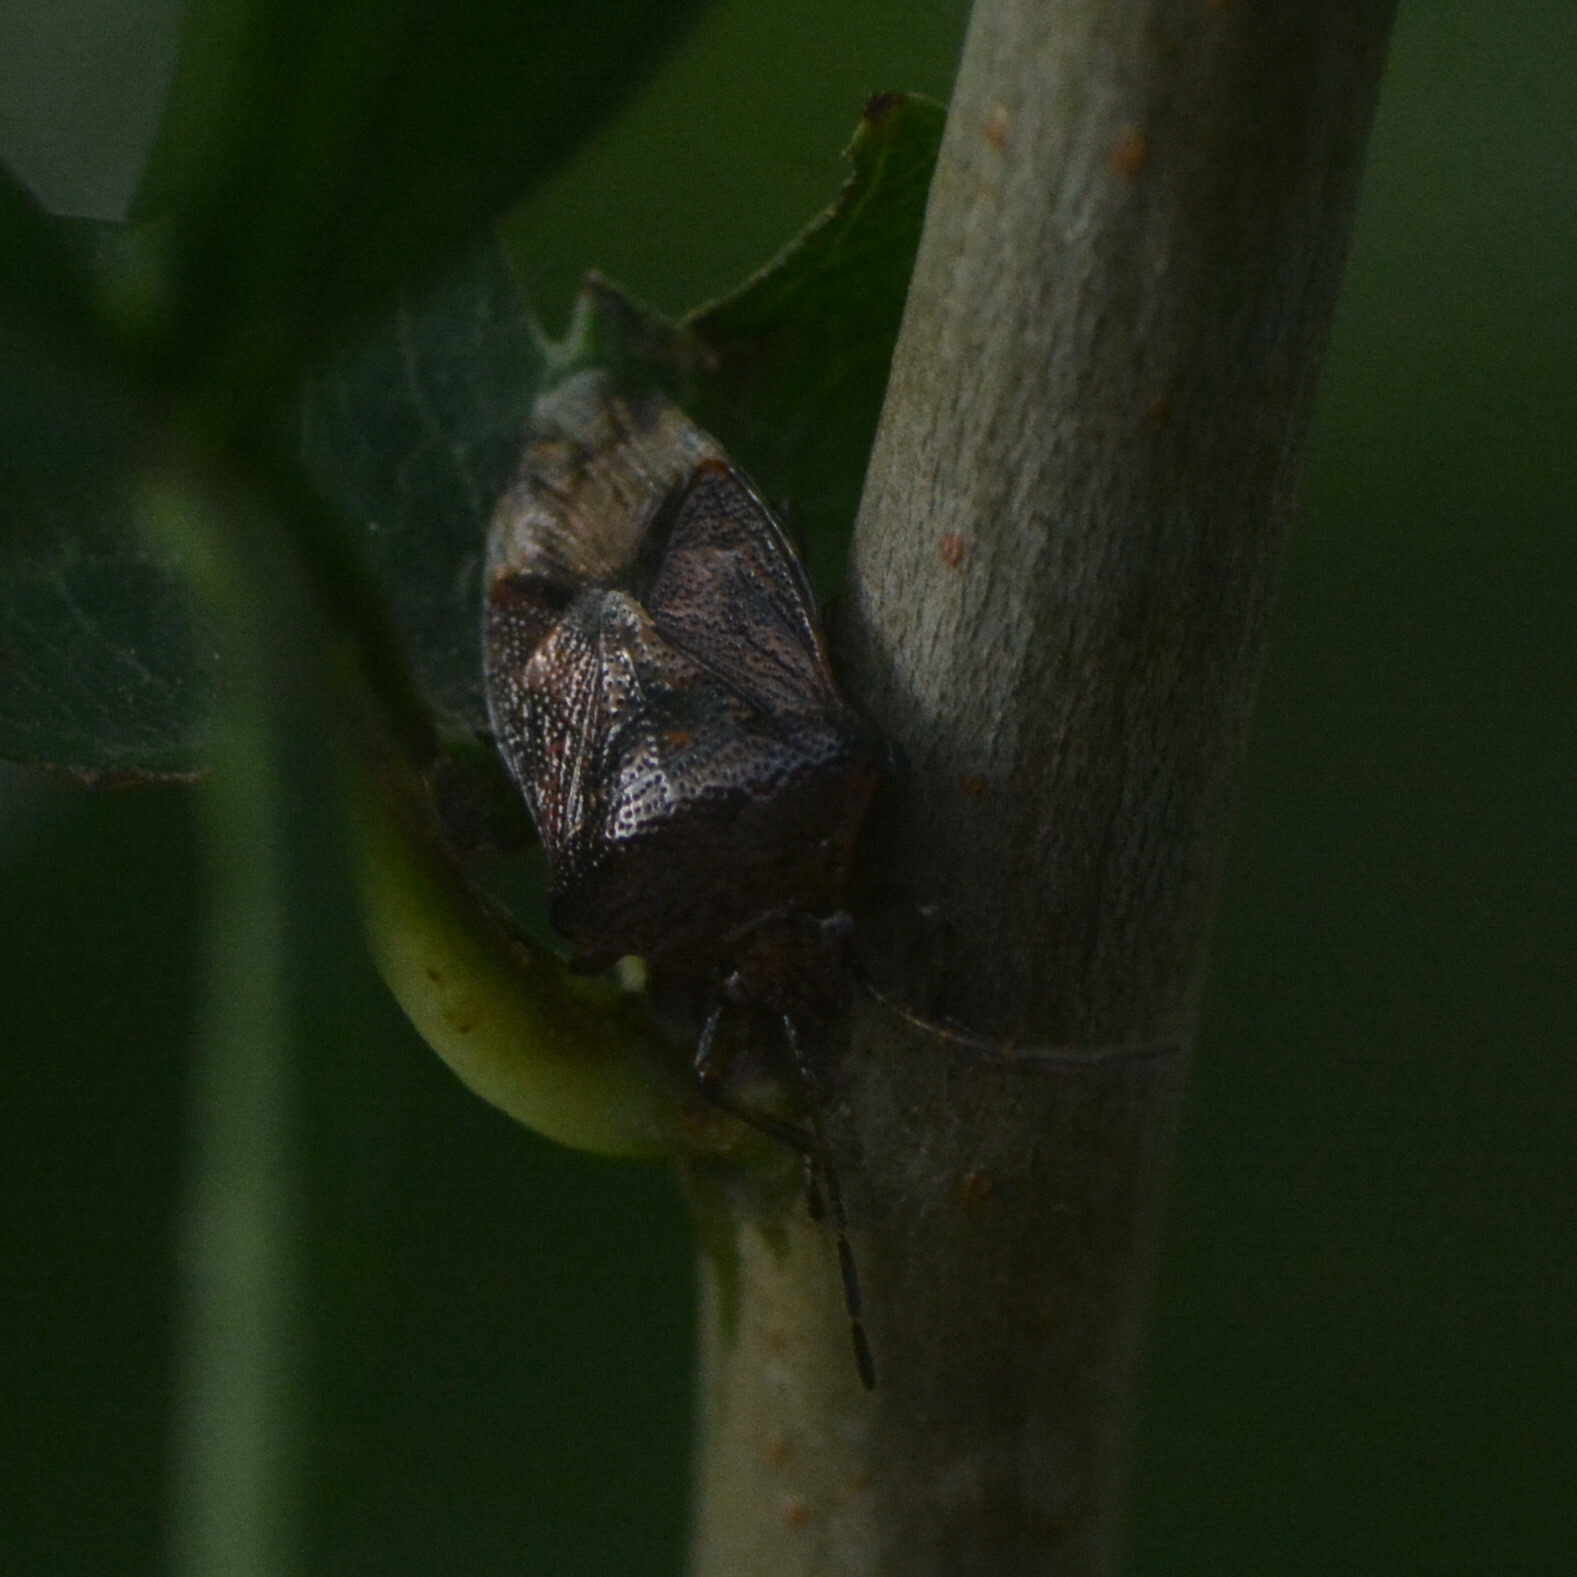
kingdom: Animalia
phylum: Arthropoda
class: Insecta
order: Hemiptera
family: Acanthosomatidae
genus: Elasmucha
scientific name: Elasmucha grisea
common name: Parent bug
